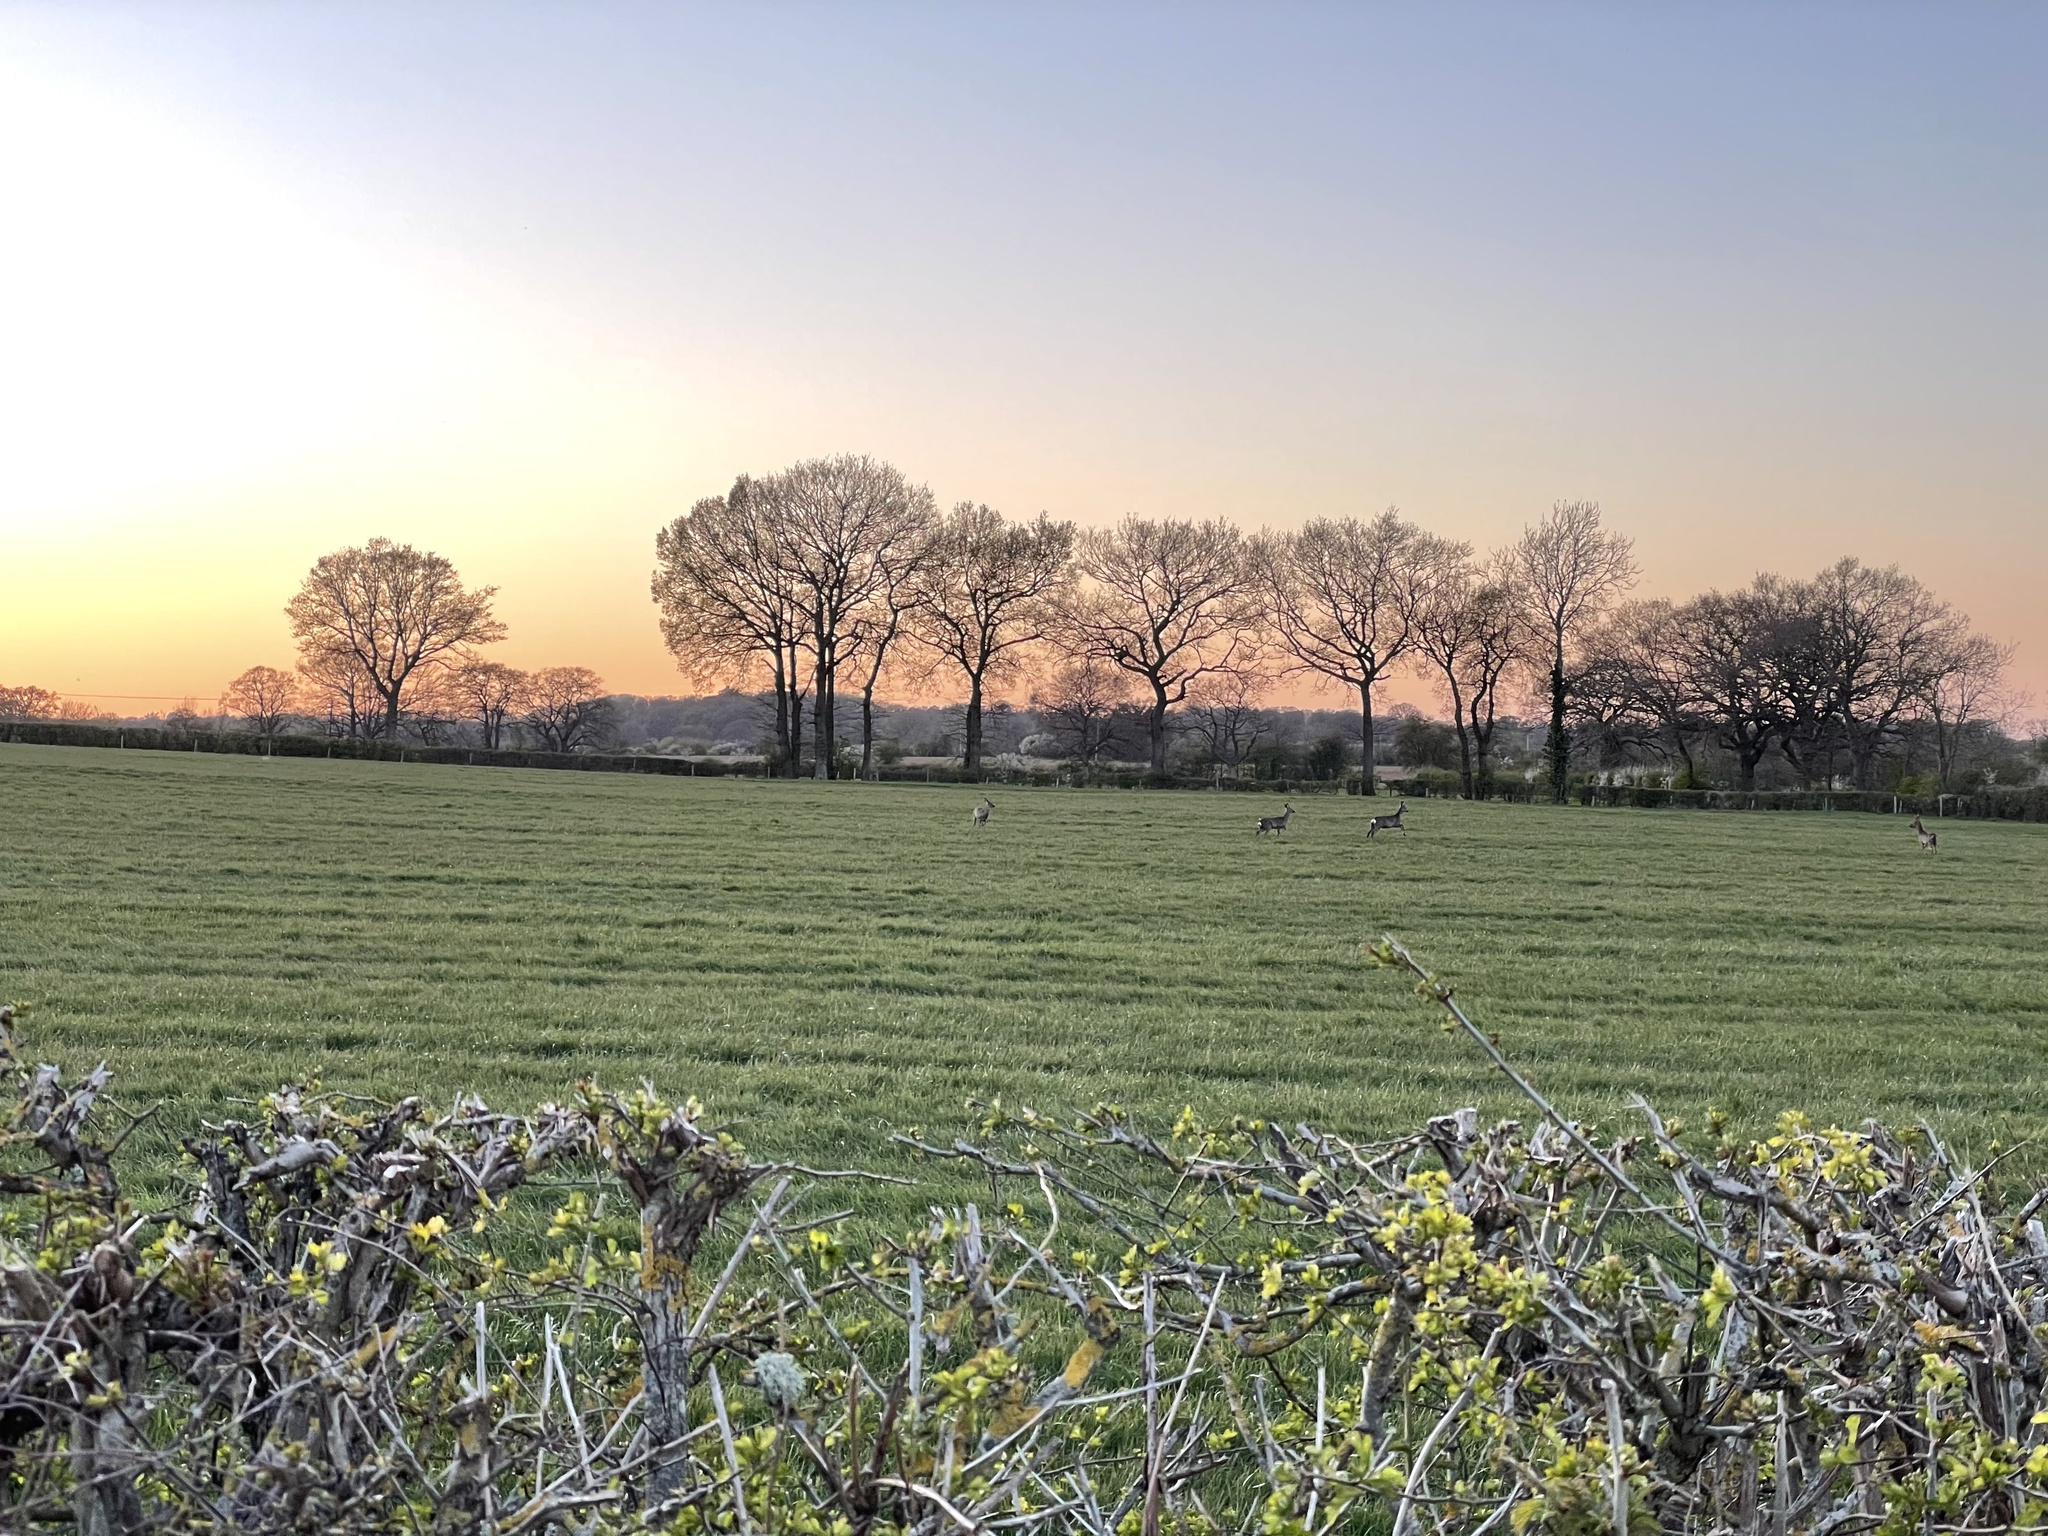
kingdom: Animalia
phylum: Chordata
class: Mammalia
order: Artiodactyla
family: Cervidae
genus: Capreolus
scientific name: Capreolus capreolus
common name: Western roe deer
